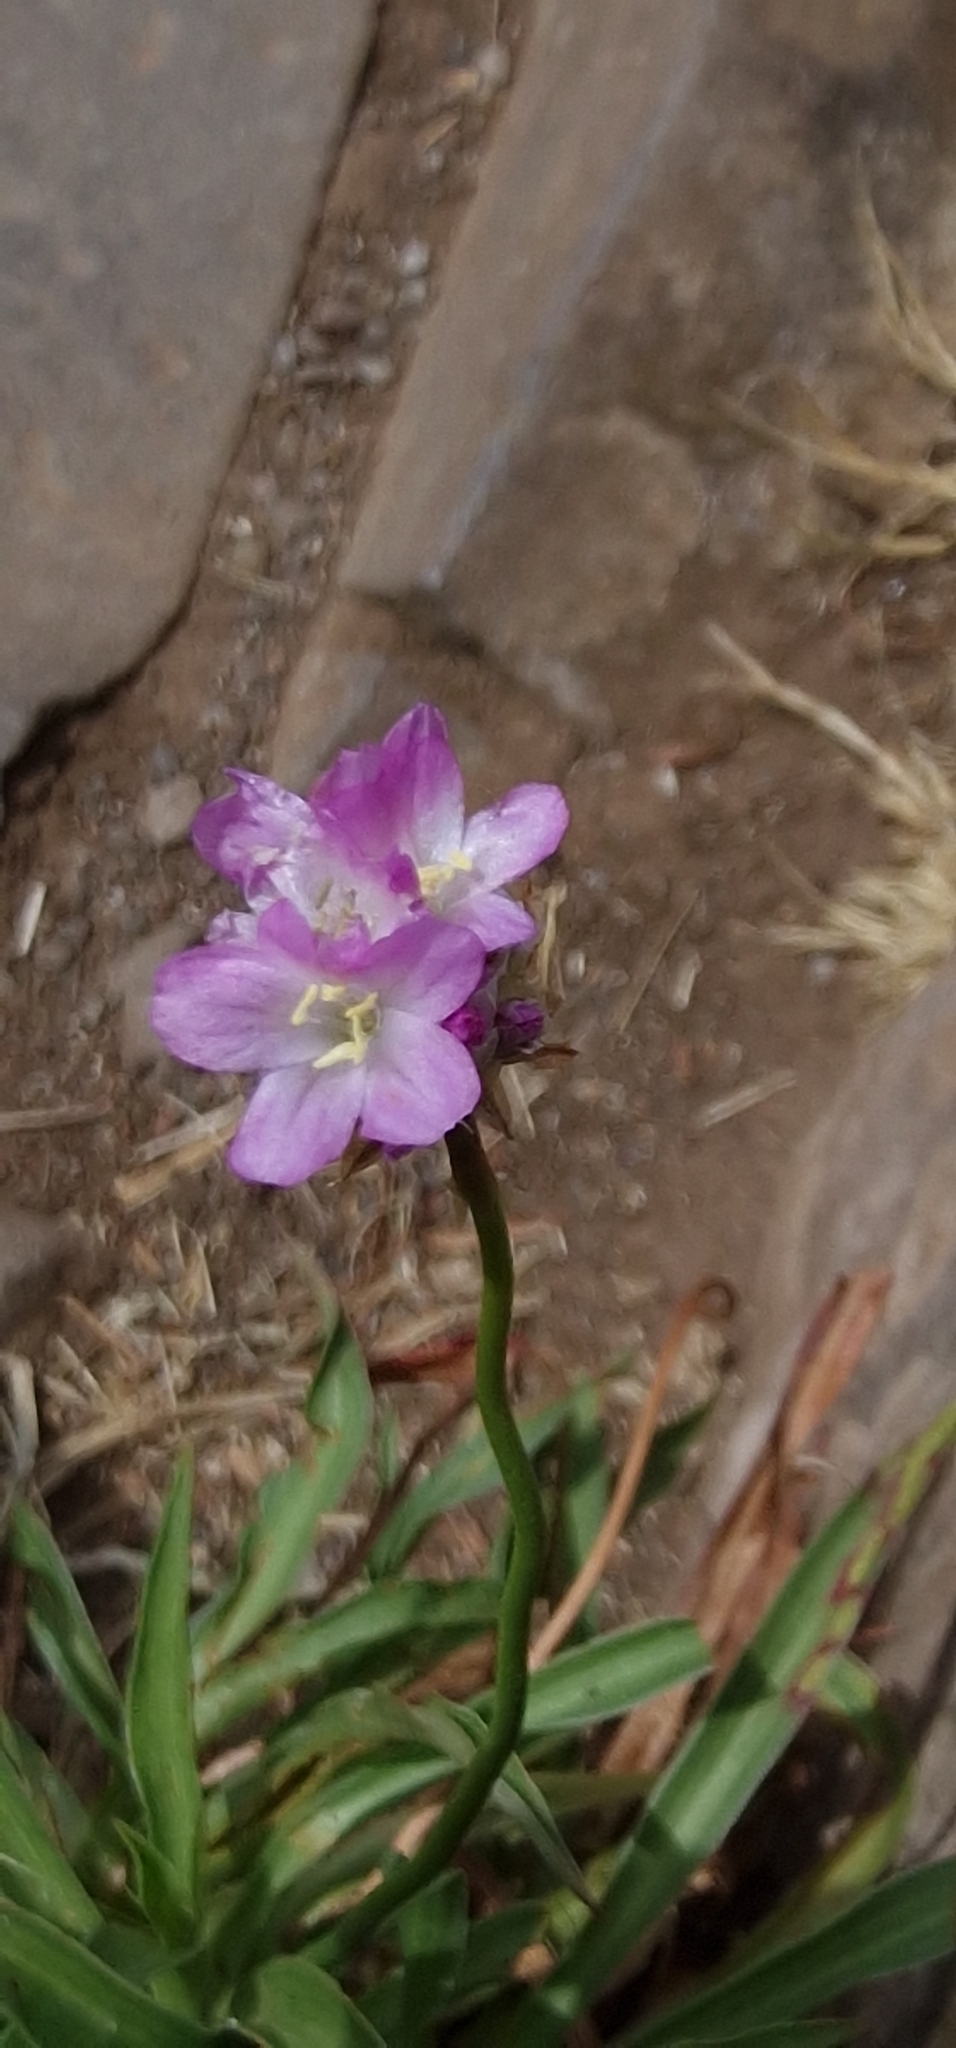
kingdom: Plantae
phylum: Tracheophyta
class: Magnoliopsida
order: Caryophyllales
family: Plumbaginaceae
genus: Armeria
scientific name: Armeria maderensis
